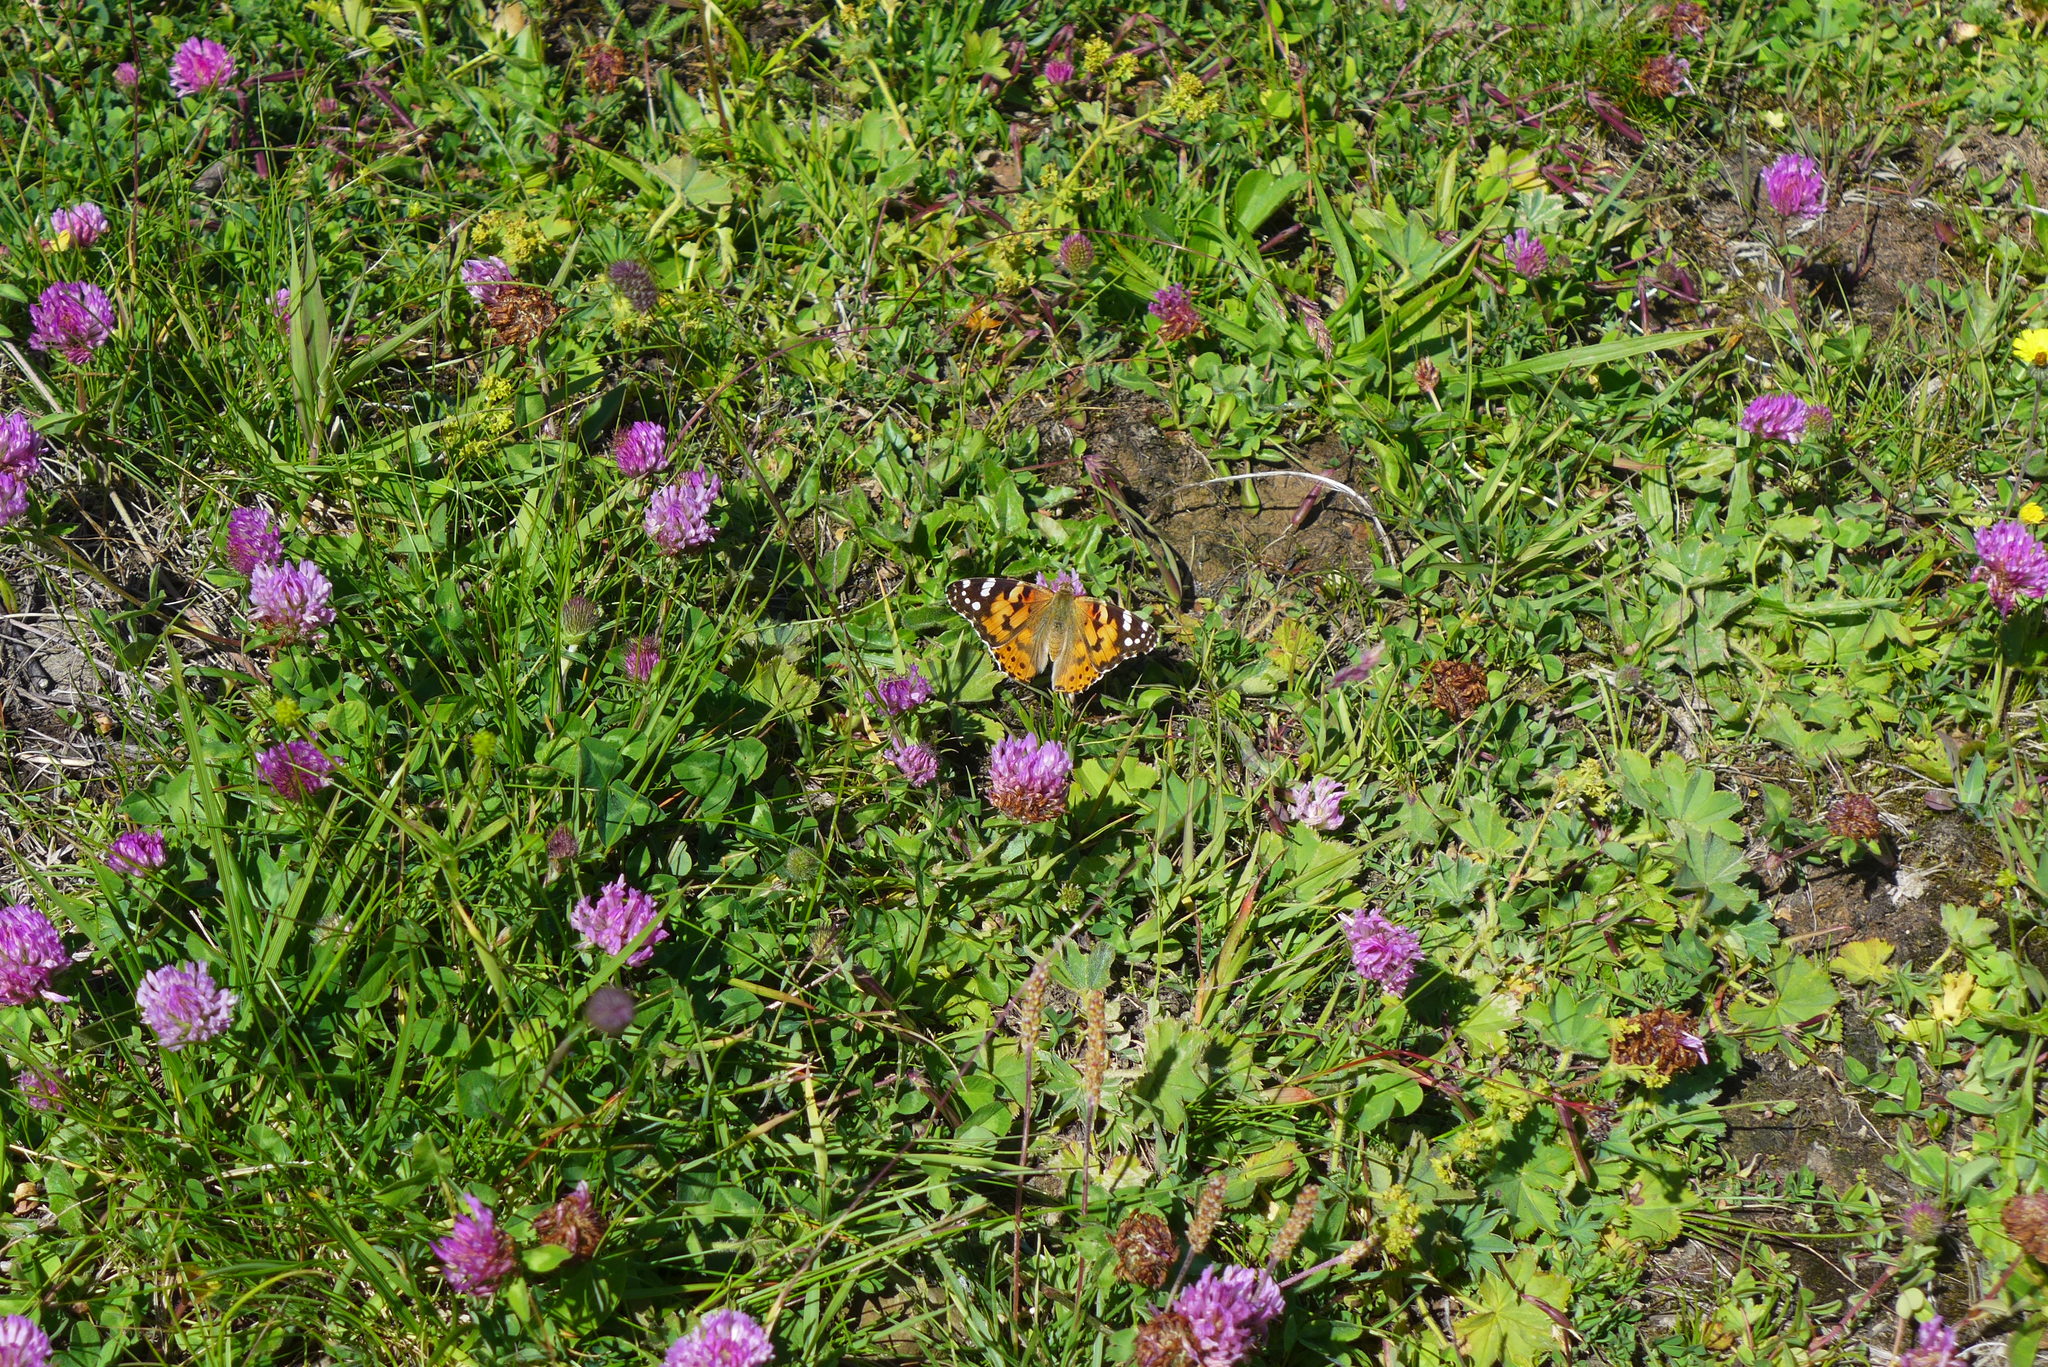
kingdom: Animalia
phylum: Arthropoda
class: Insecta
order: Lepidoptera
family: Nymphalidae
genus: Vanessa
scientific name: Vanessa cardui
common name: Painted lady
